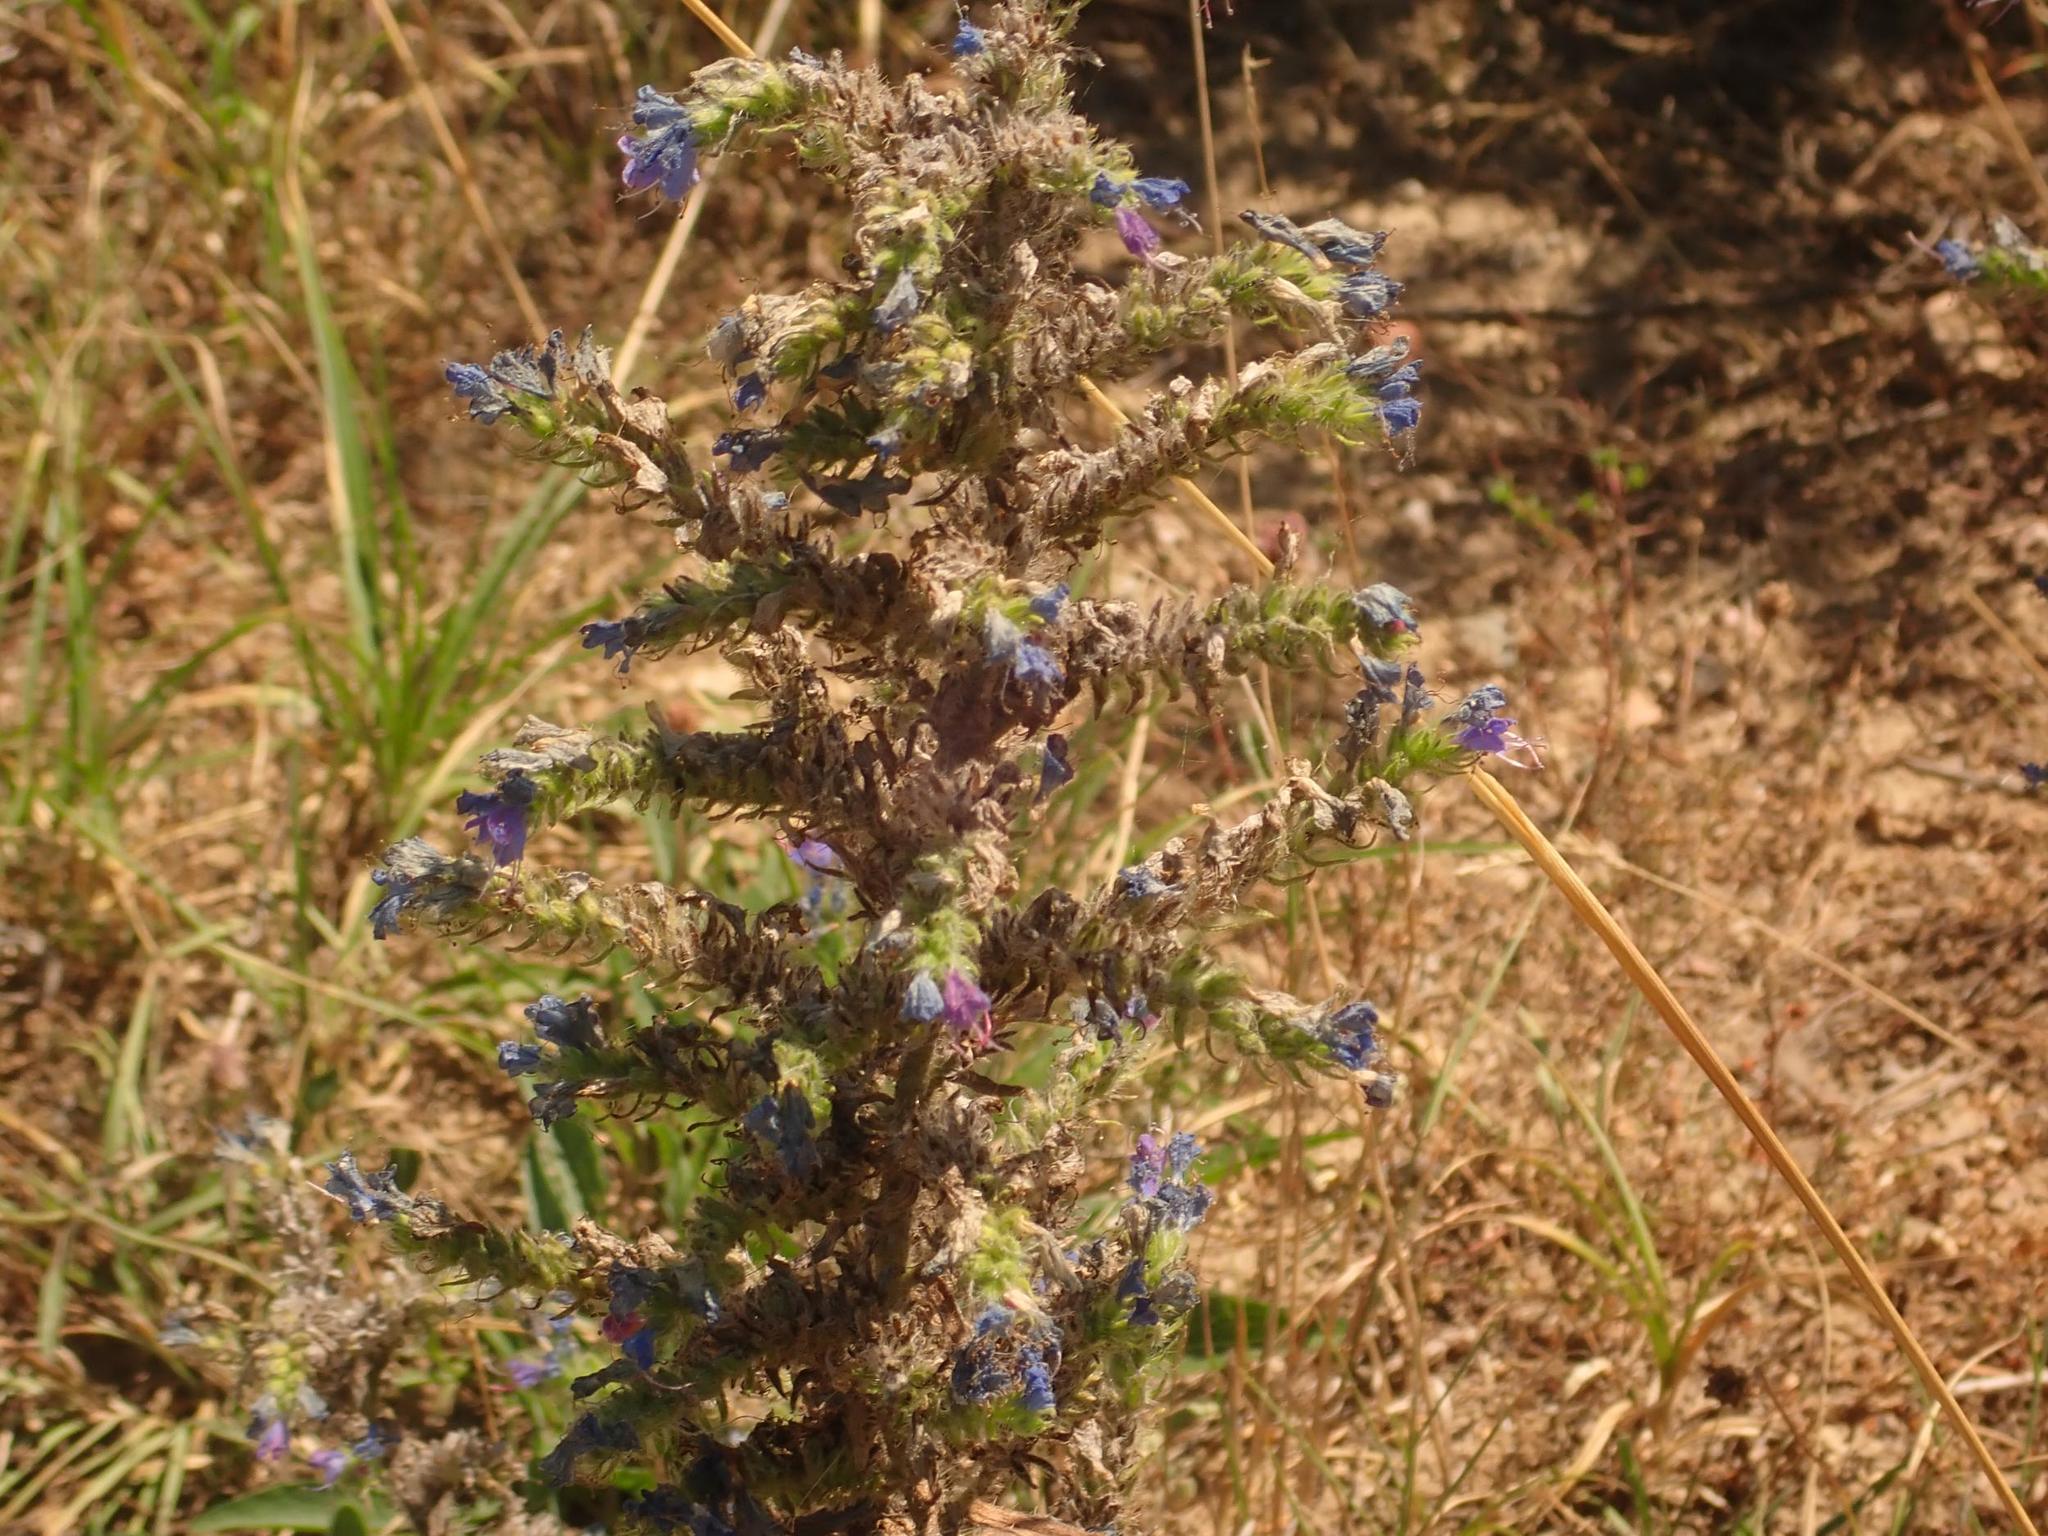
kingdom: Plantae
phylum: Tracheophyta
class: Magnoliopsida
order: Boraginales
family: Boraginaceae
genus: Echium
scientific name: Echium vulgare
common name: Common viper's bugloss
